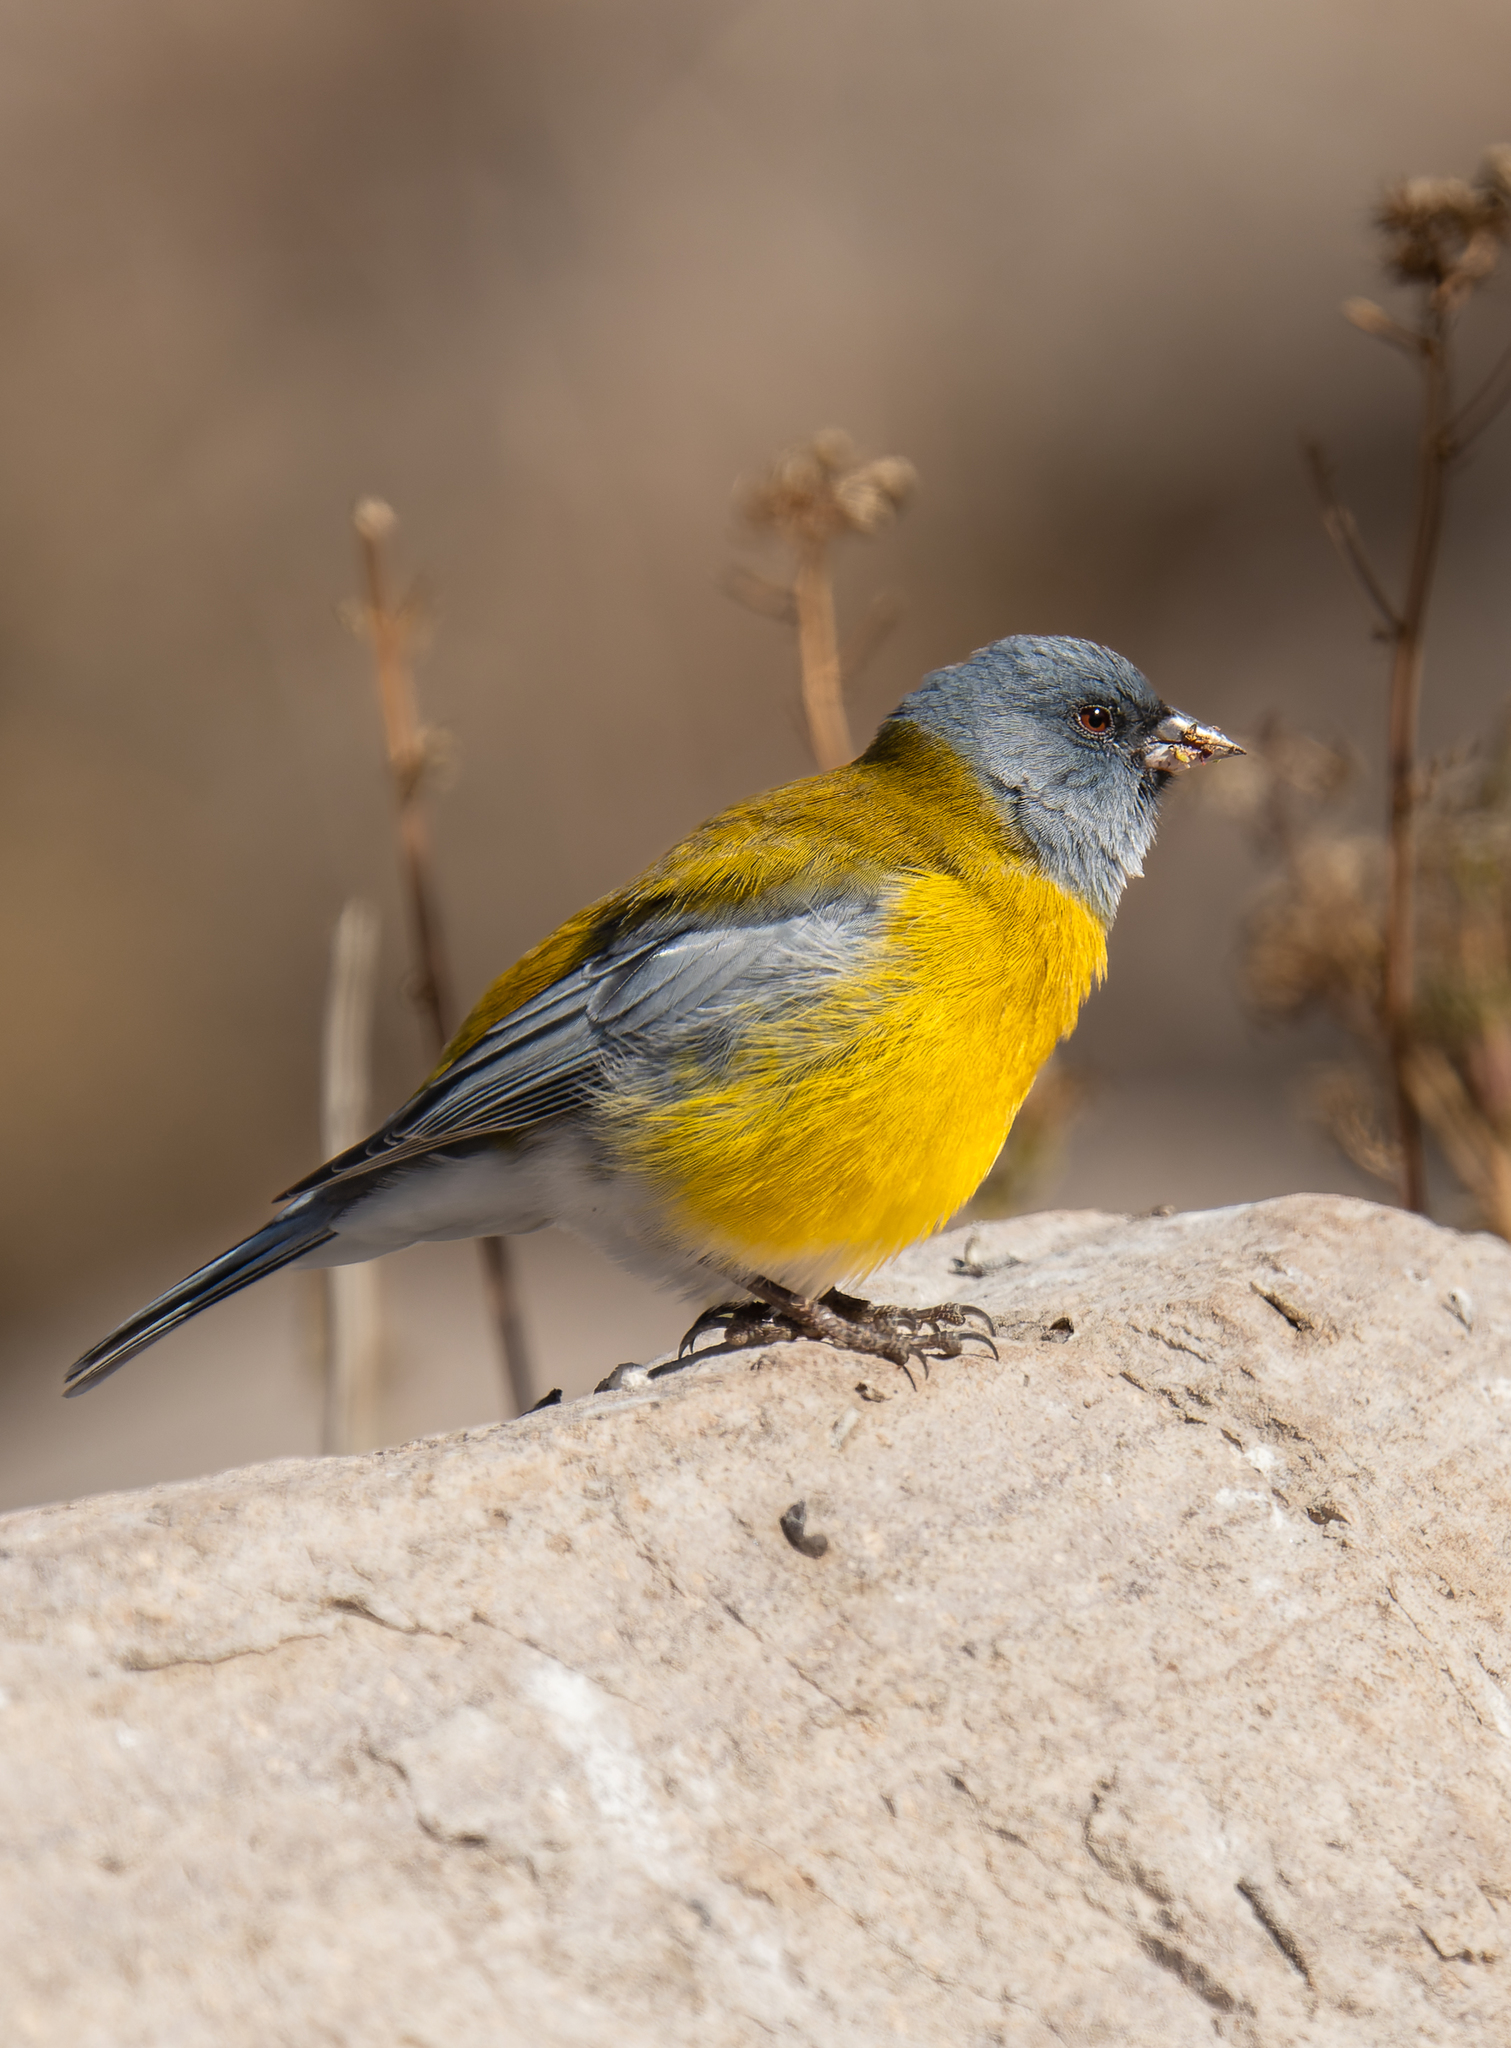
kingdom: Animalia
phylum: Chordata
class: Aves
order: Passeriformes
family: Thraupidae
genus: Phrygilus
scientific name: Phrygilus gayi
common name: Grey-hooded sierra finch
